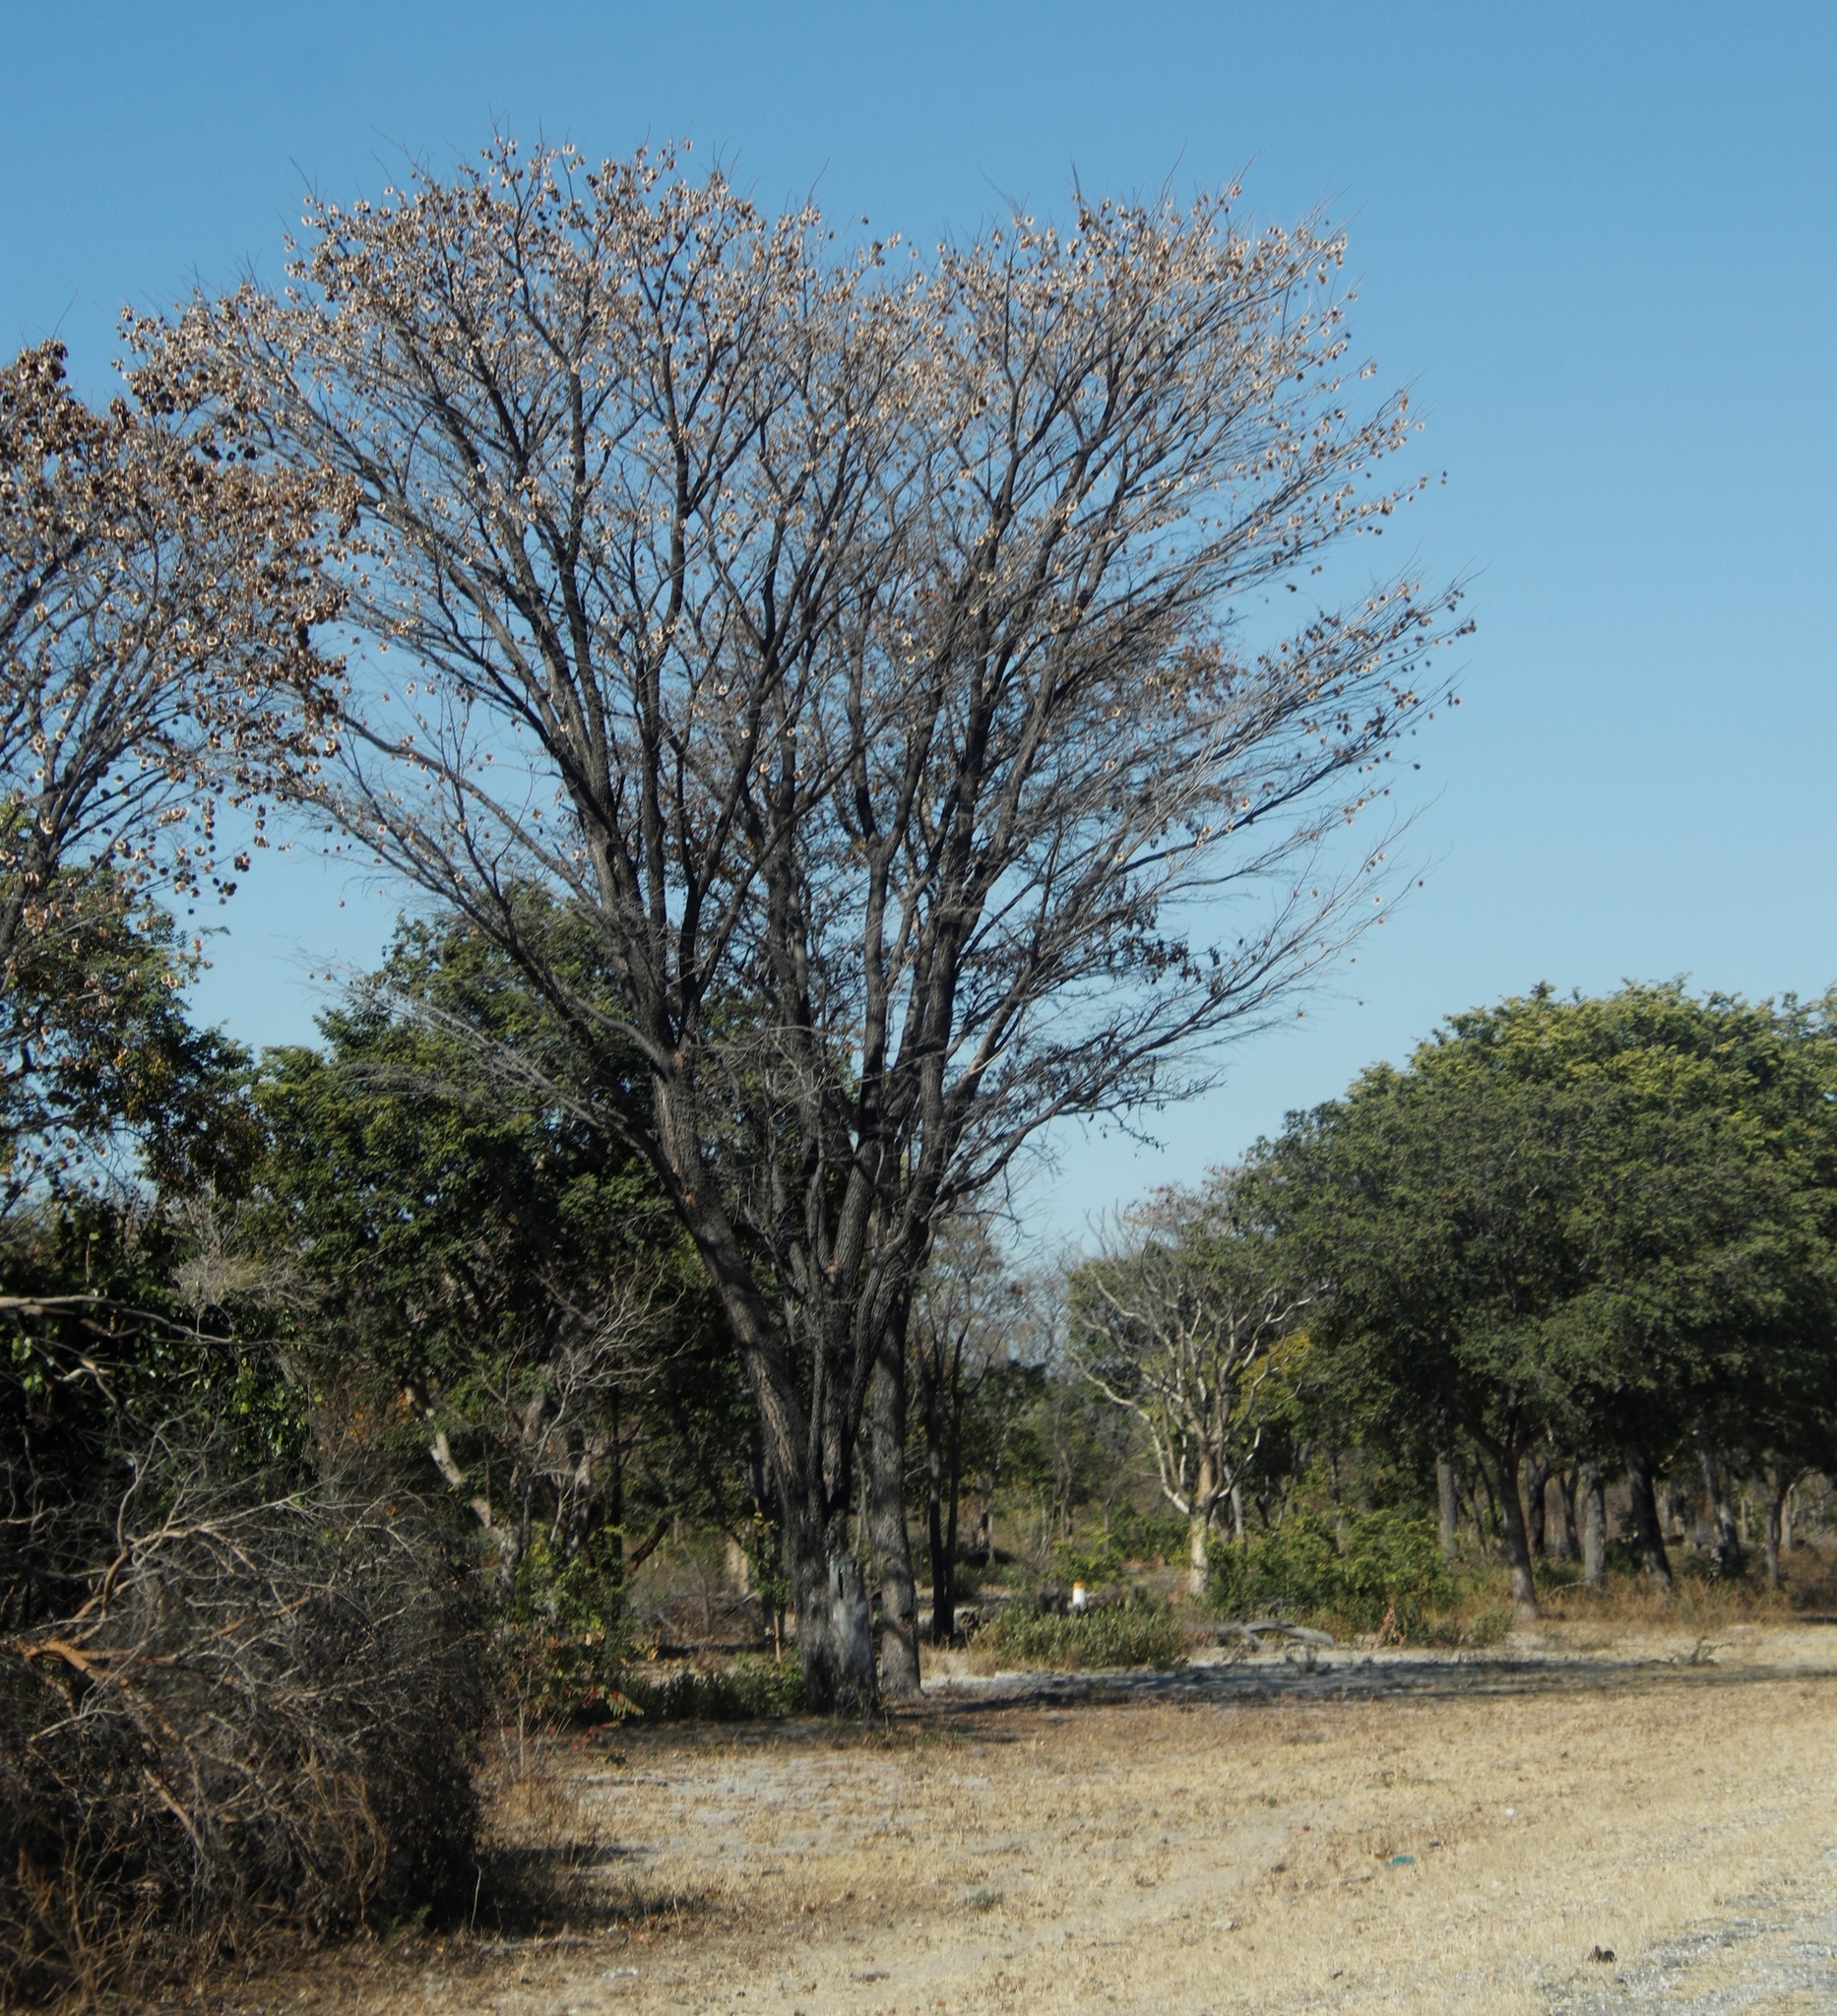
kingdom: Plantae
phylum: Tracheophyta
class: Magnoliopsida
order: Fabales
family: Fabaceae
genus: Pterocarpus
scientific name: Pterocarpus angolensis
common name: Bloodwood tree
